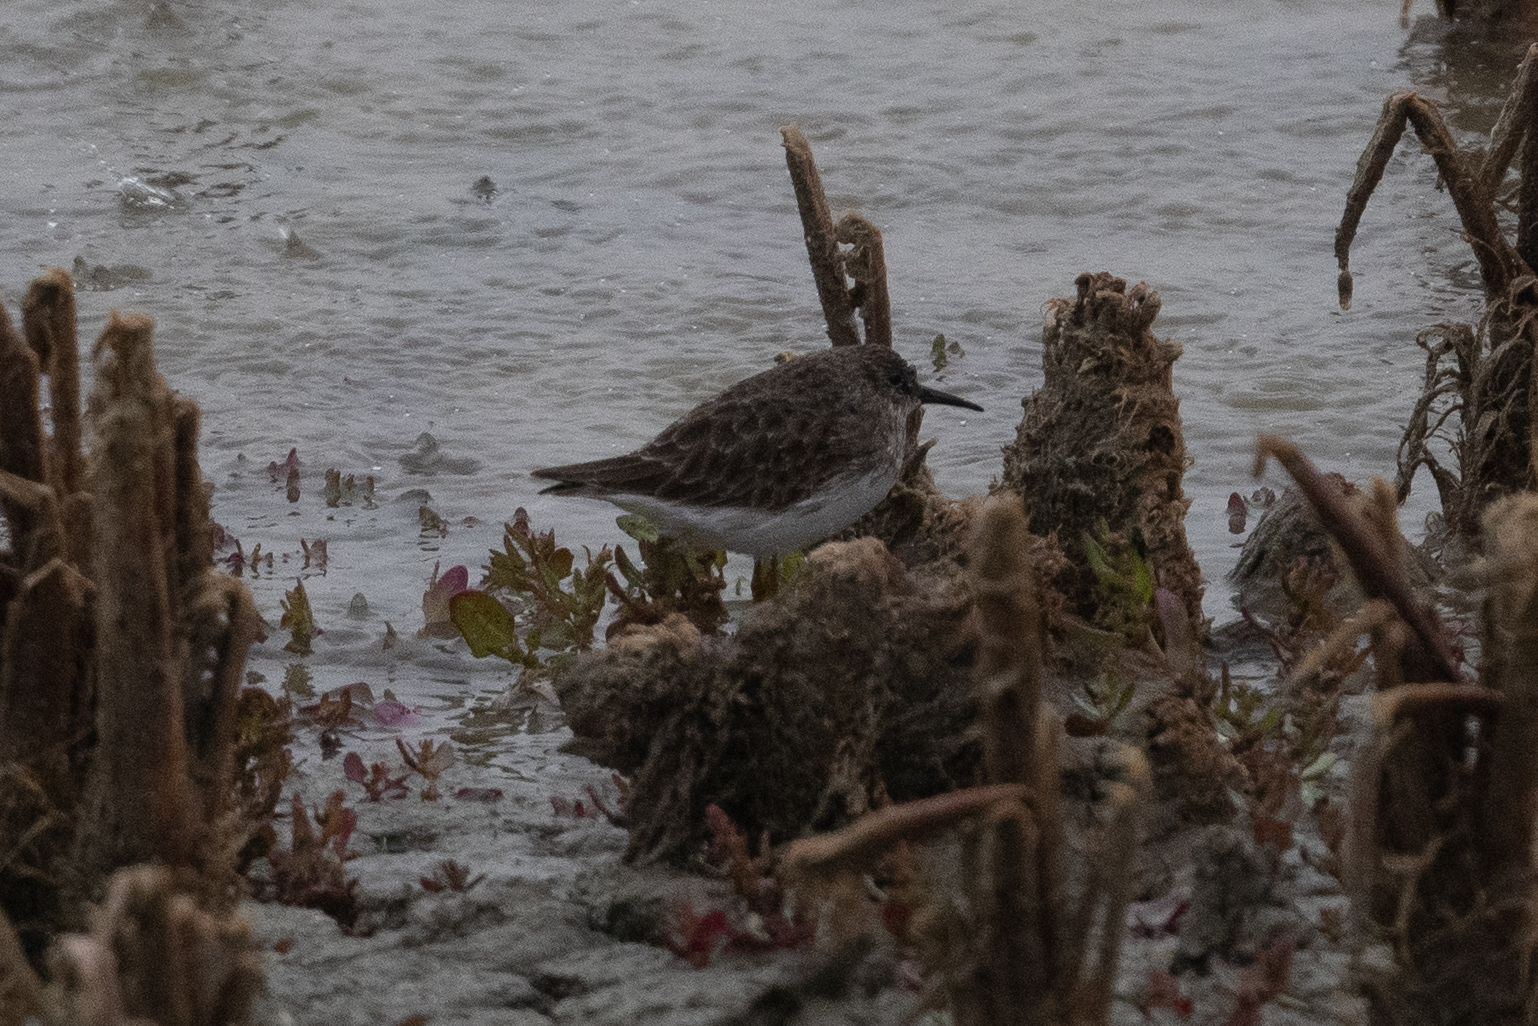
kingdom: Animalia
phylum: Chordata
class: Aves
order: Charadriiformes
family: Scolopacidae
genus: Calidris
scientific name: Calidris minutilla
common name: Least sandpiper
